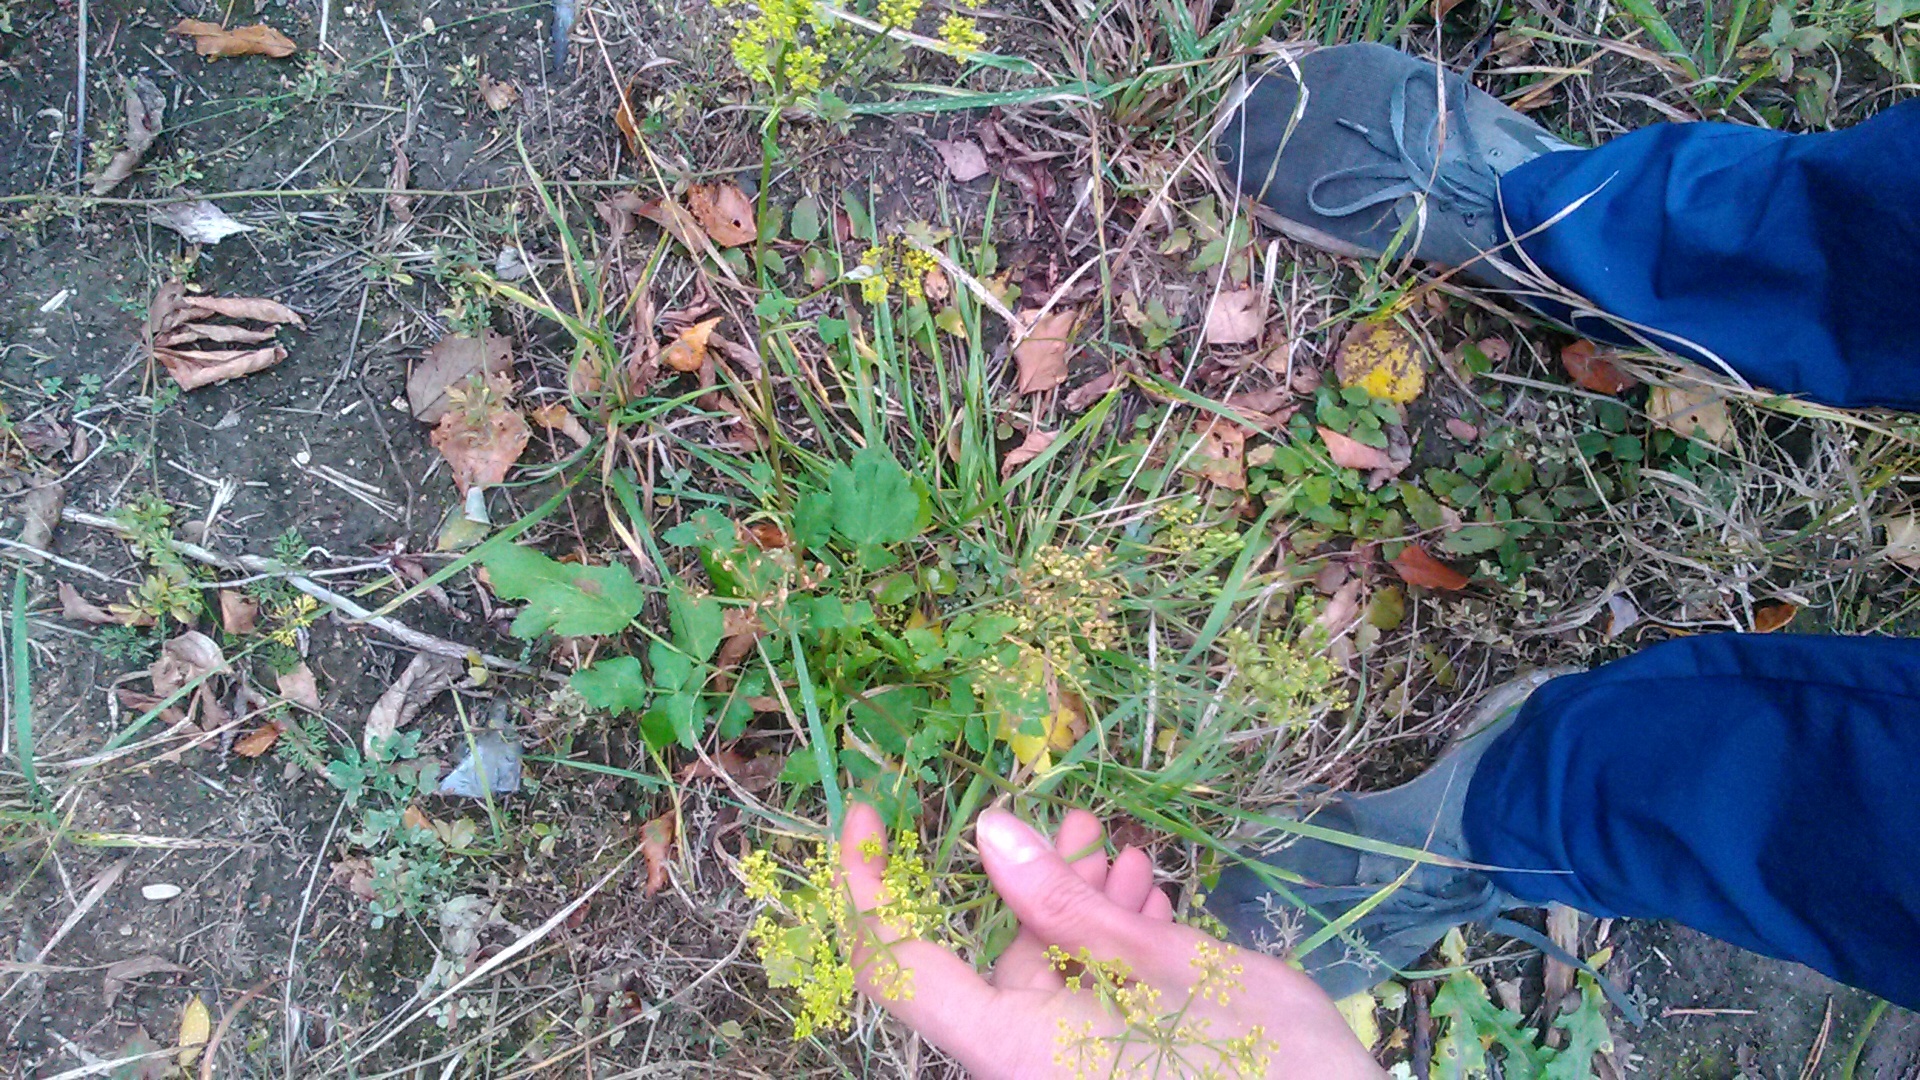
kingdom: Plantae
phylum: Tracheophyta
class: Magnoliopsida
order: Apiales
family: Apiaceae
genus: Pastinaca
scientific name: Pastinaca sativa
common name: Wild parsnip
